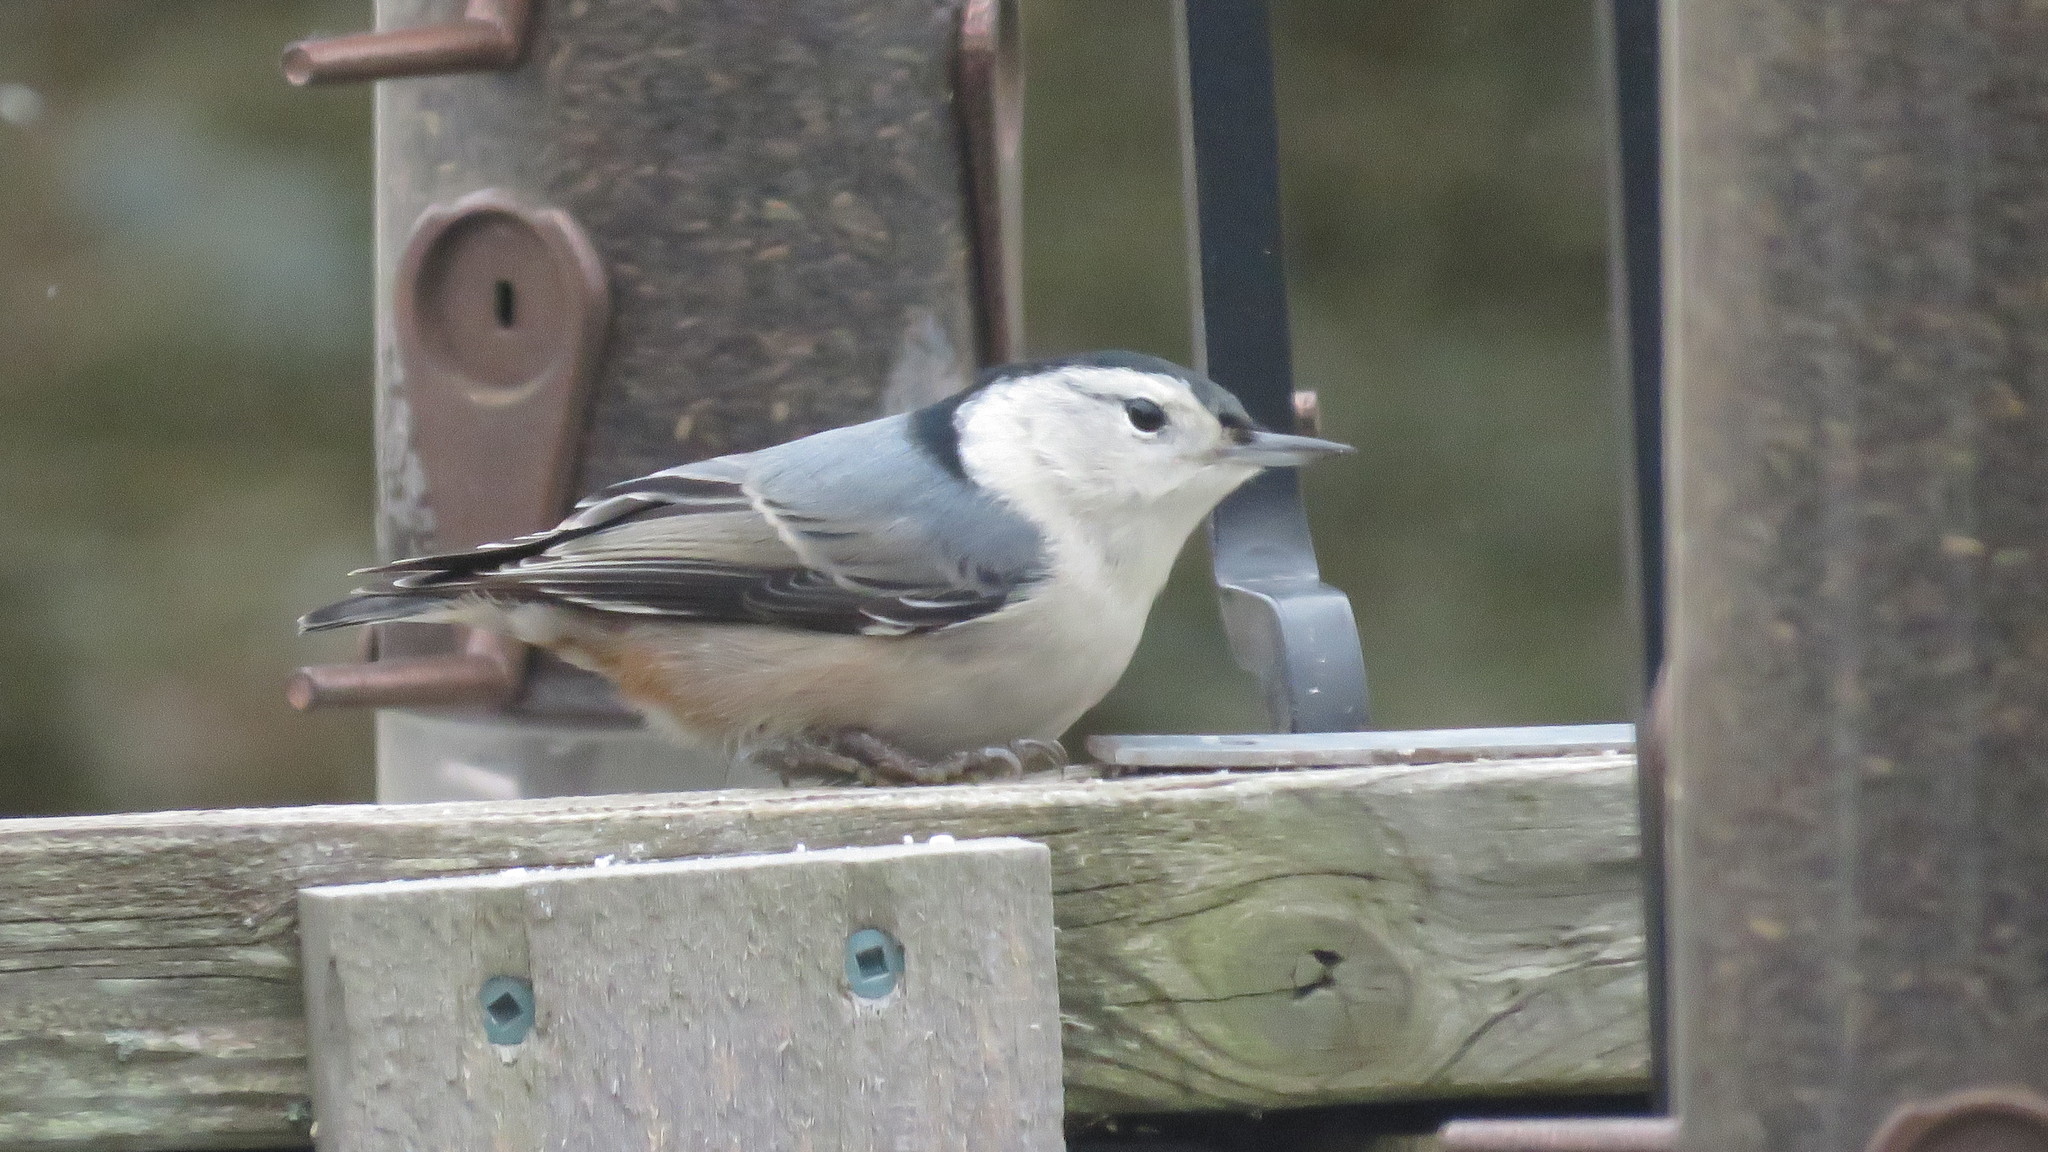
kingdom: Animalia
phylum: Chordata
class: Aves
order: Passeriformes
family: Sittidae
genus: Sitta
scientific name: Sitta carolinensis
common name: White-breasted nuthatch
